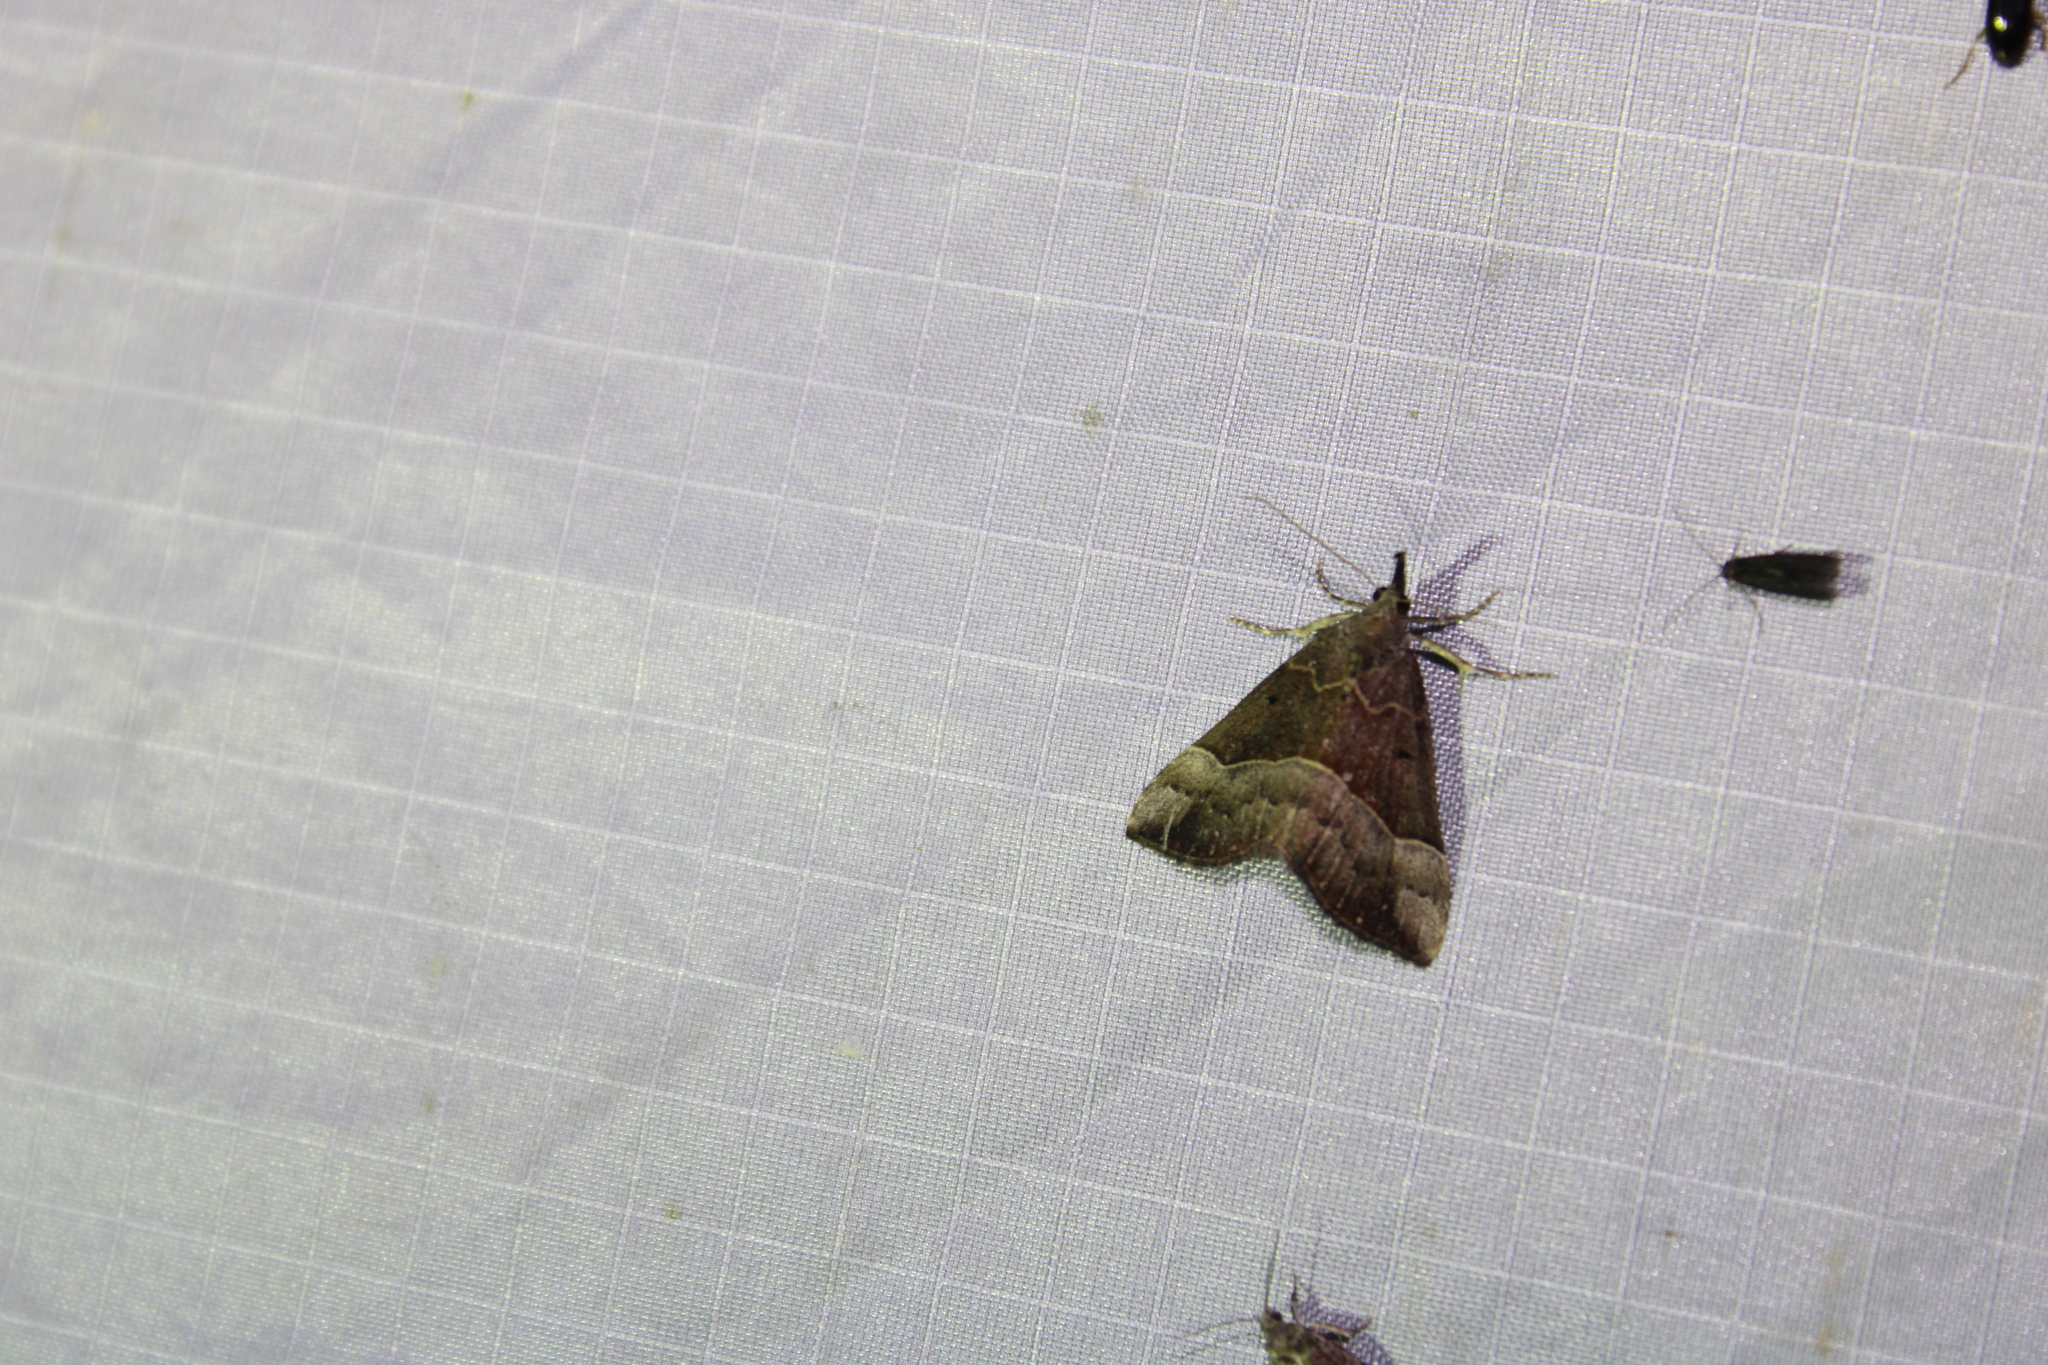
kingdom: Animalia
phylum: Arthropoda
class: Insecta
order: Lepidoptera
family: Erebidae
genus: Hypena
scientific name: Hypena eductalis
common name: Red-footed snout
